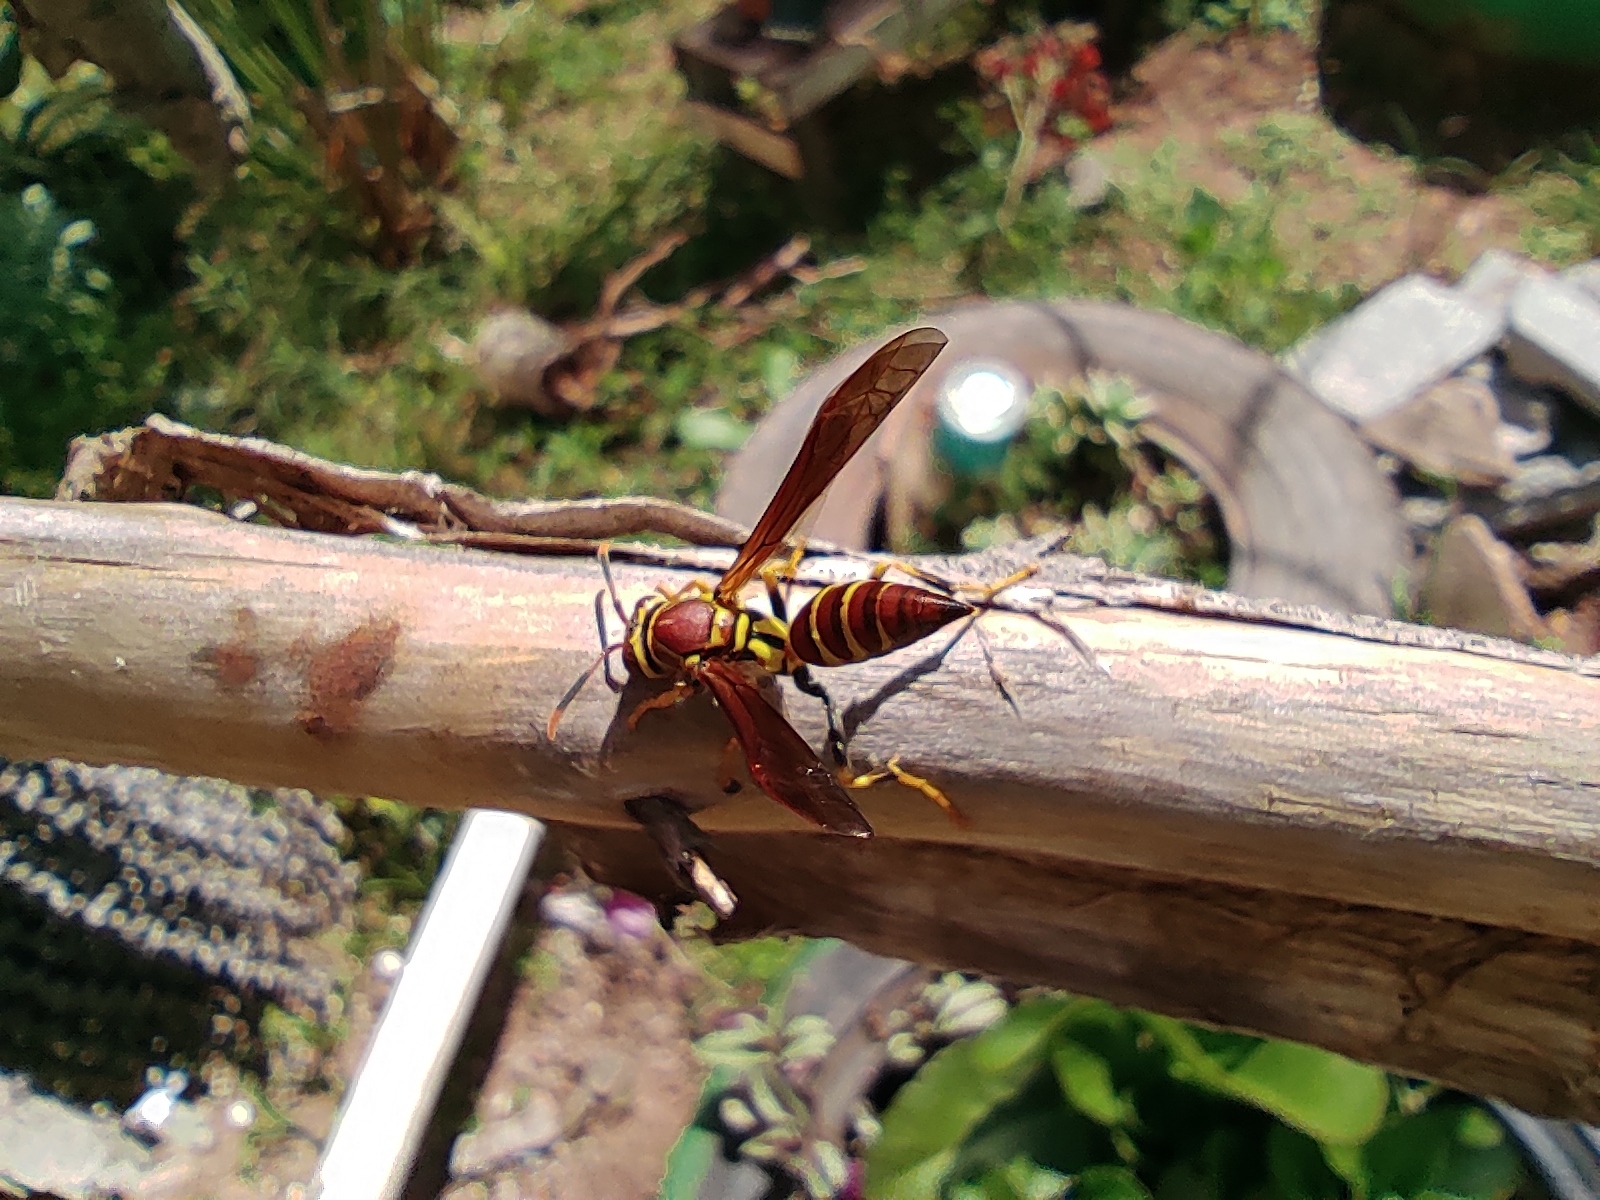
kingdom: Animalia
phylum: Arthropoda
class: Insecta
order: Hymenoptera
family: Eumenidae
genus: Polistes
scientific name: Polistes instabilis
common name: Unstable paper wasp
